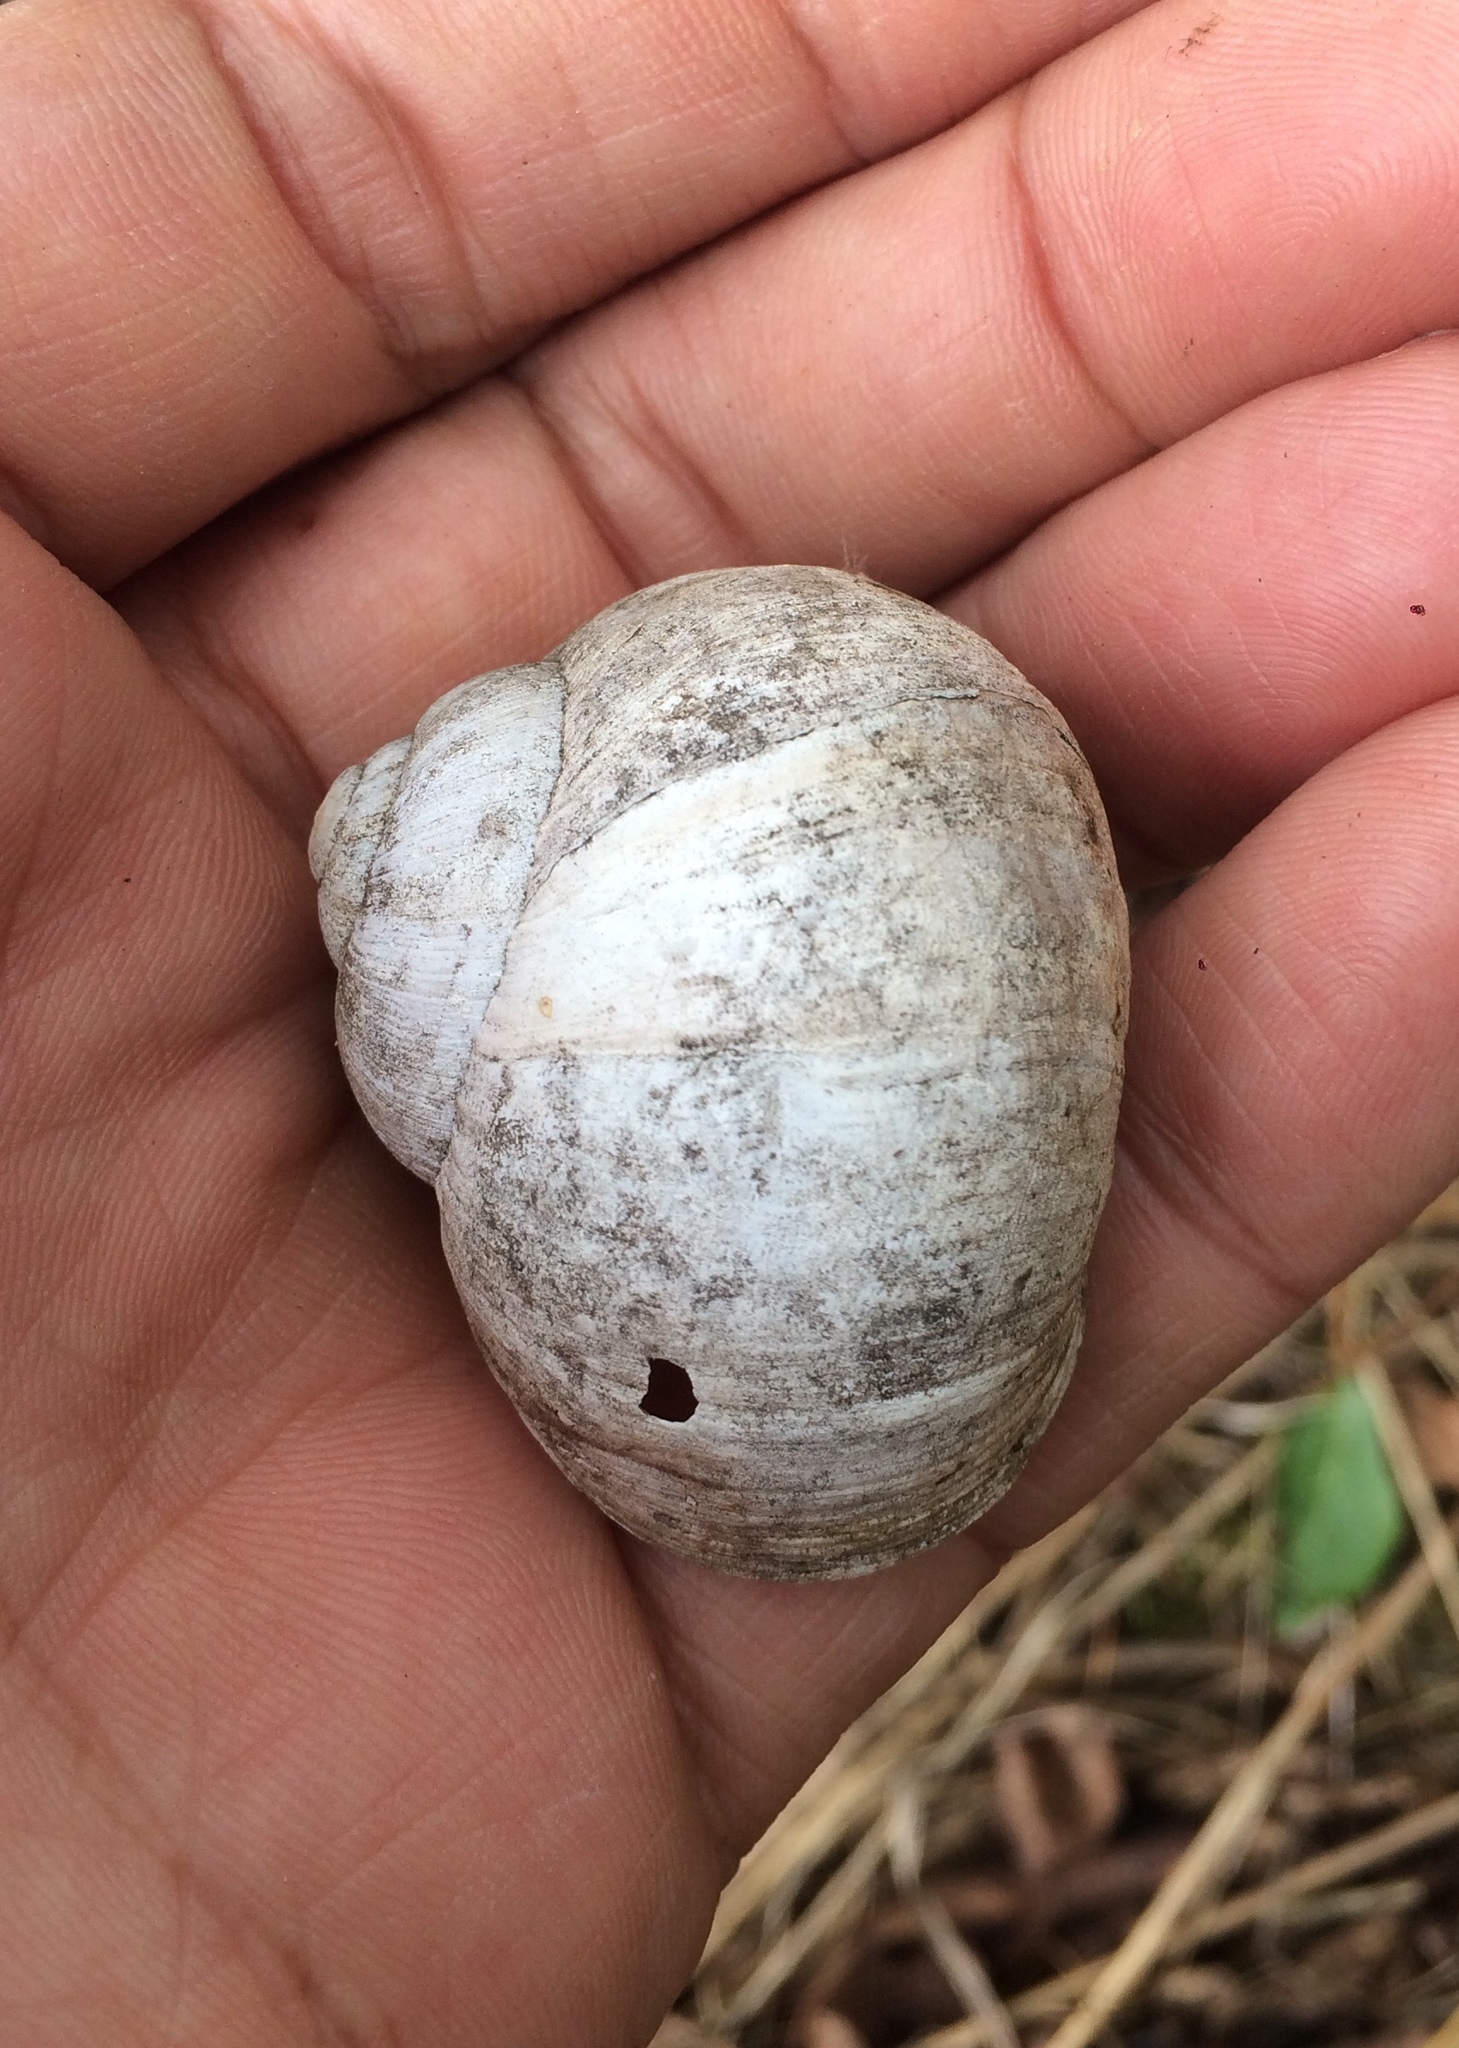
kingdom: Animalia
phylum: Mollusca
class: Gastropoda
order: Stylommatophora
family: Helicidae
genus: Helix
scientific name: Helix pomatia
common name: Roman snail
